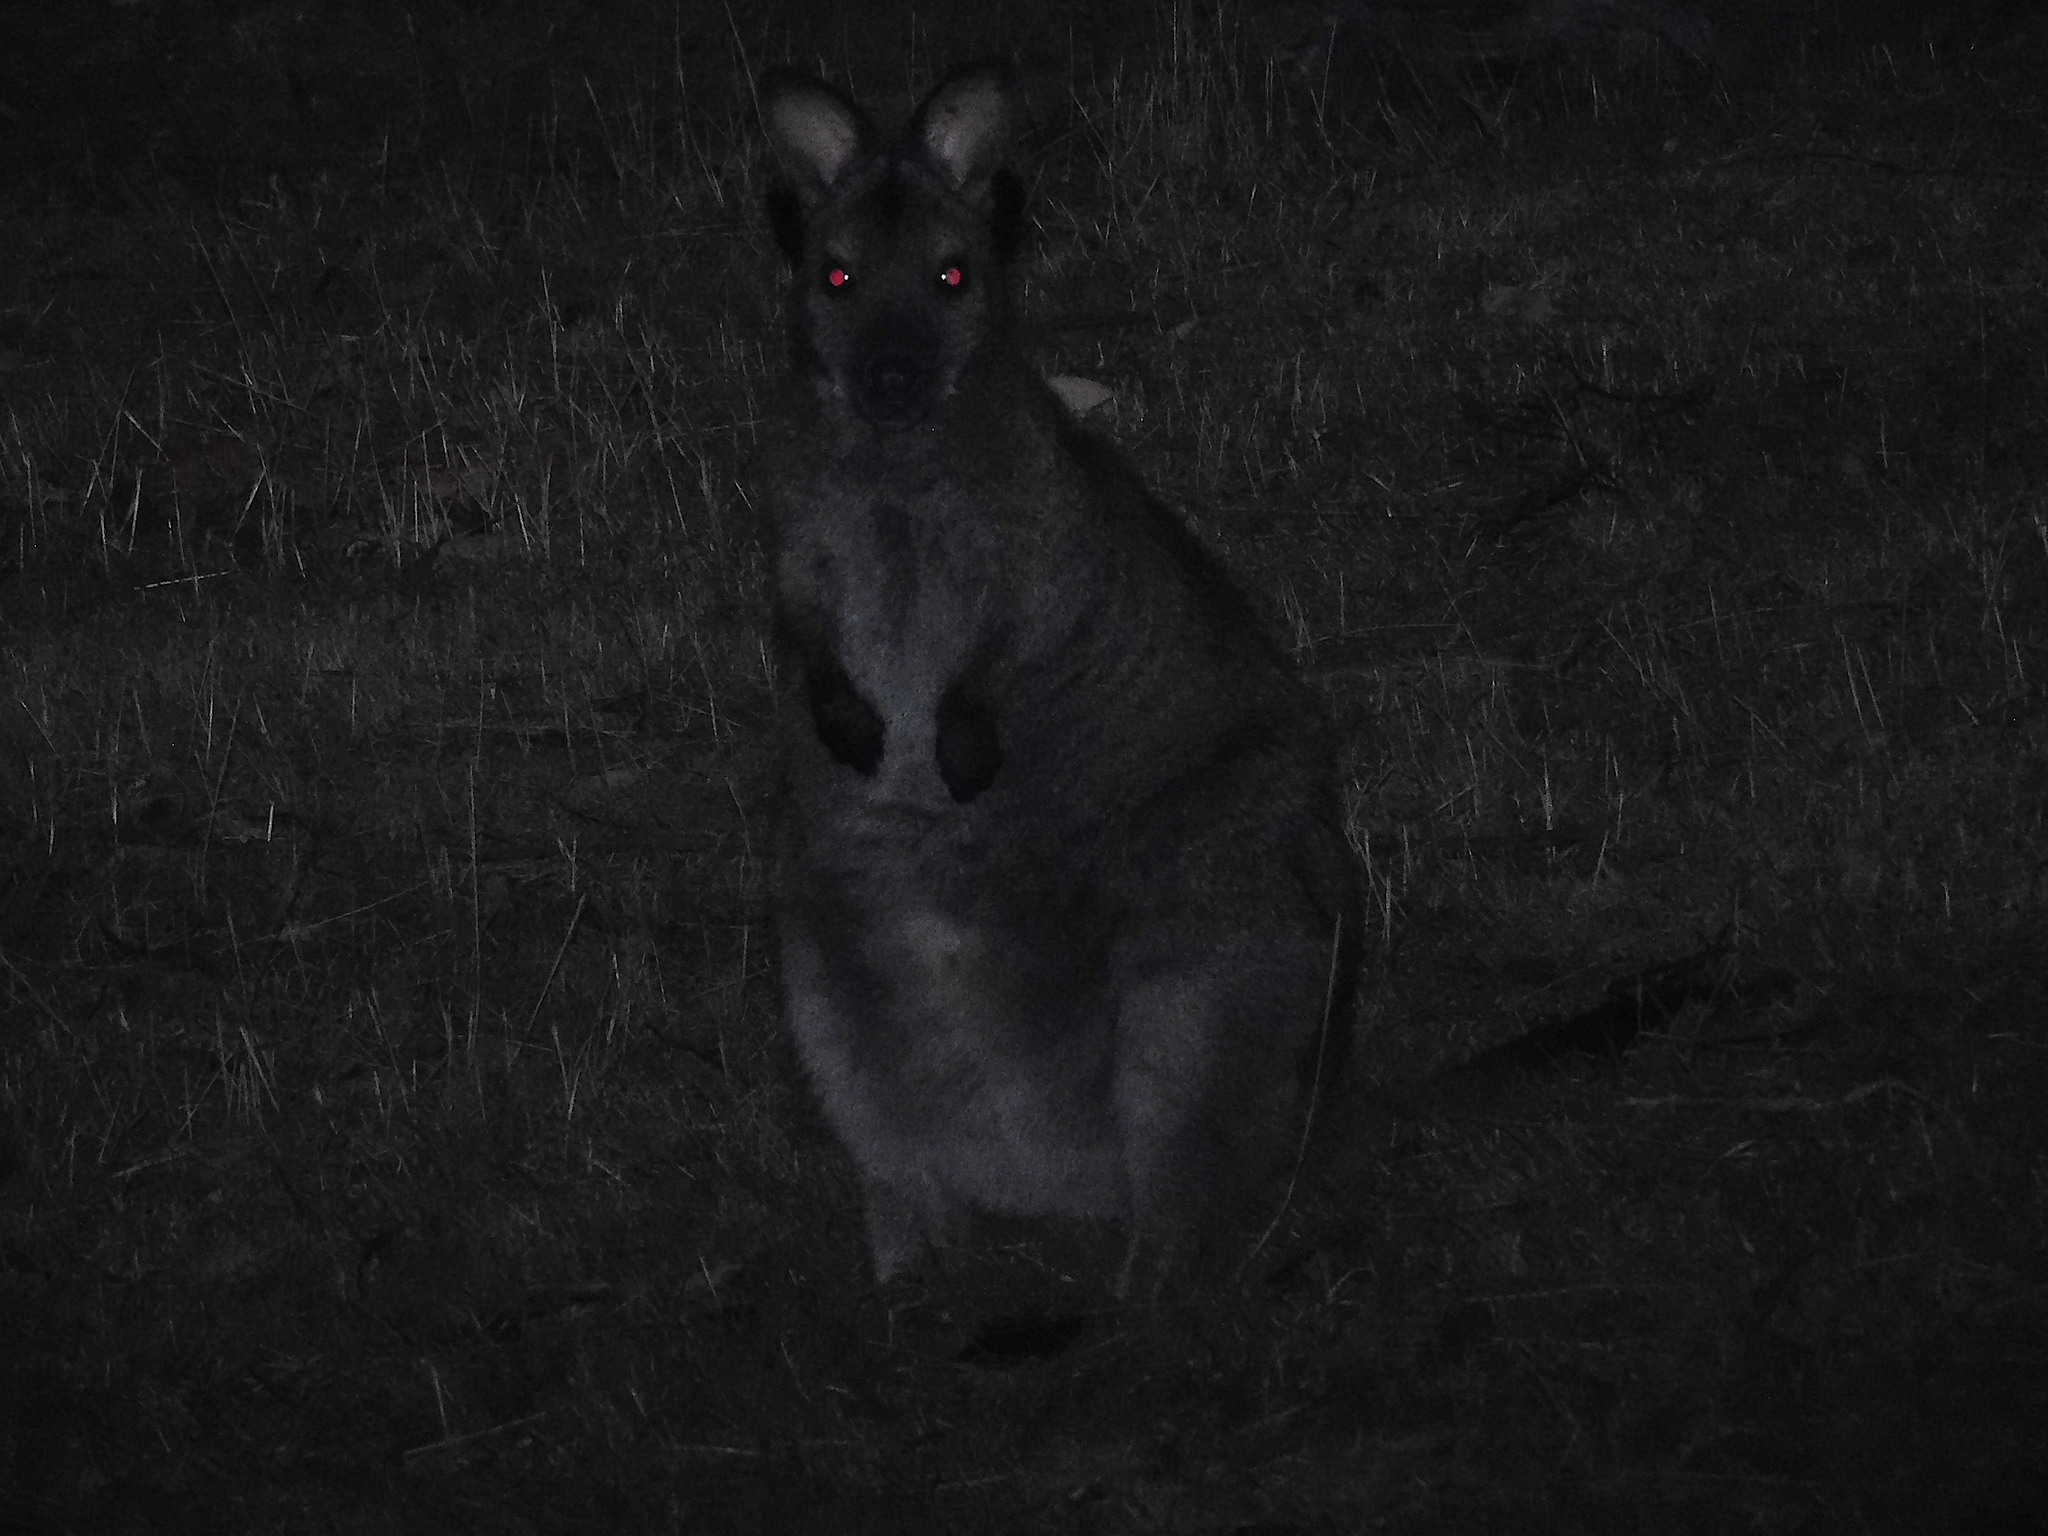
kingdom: Animalia
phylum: Chordata
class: Mammalia
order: Diprotodontia
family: Macropodidae
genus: Notamacropus
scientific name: Notamacropus rufogriseus
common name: Red-necked wallaby
